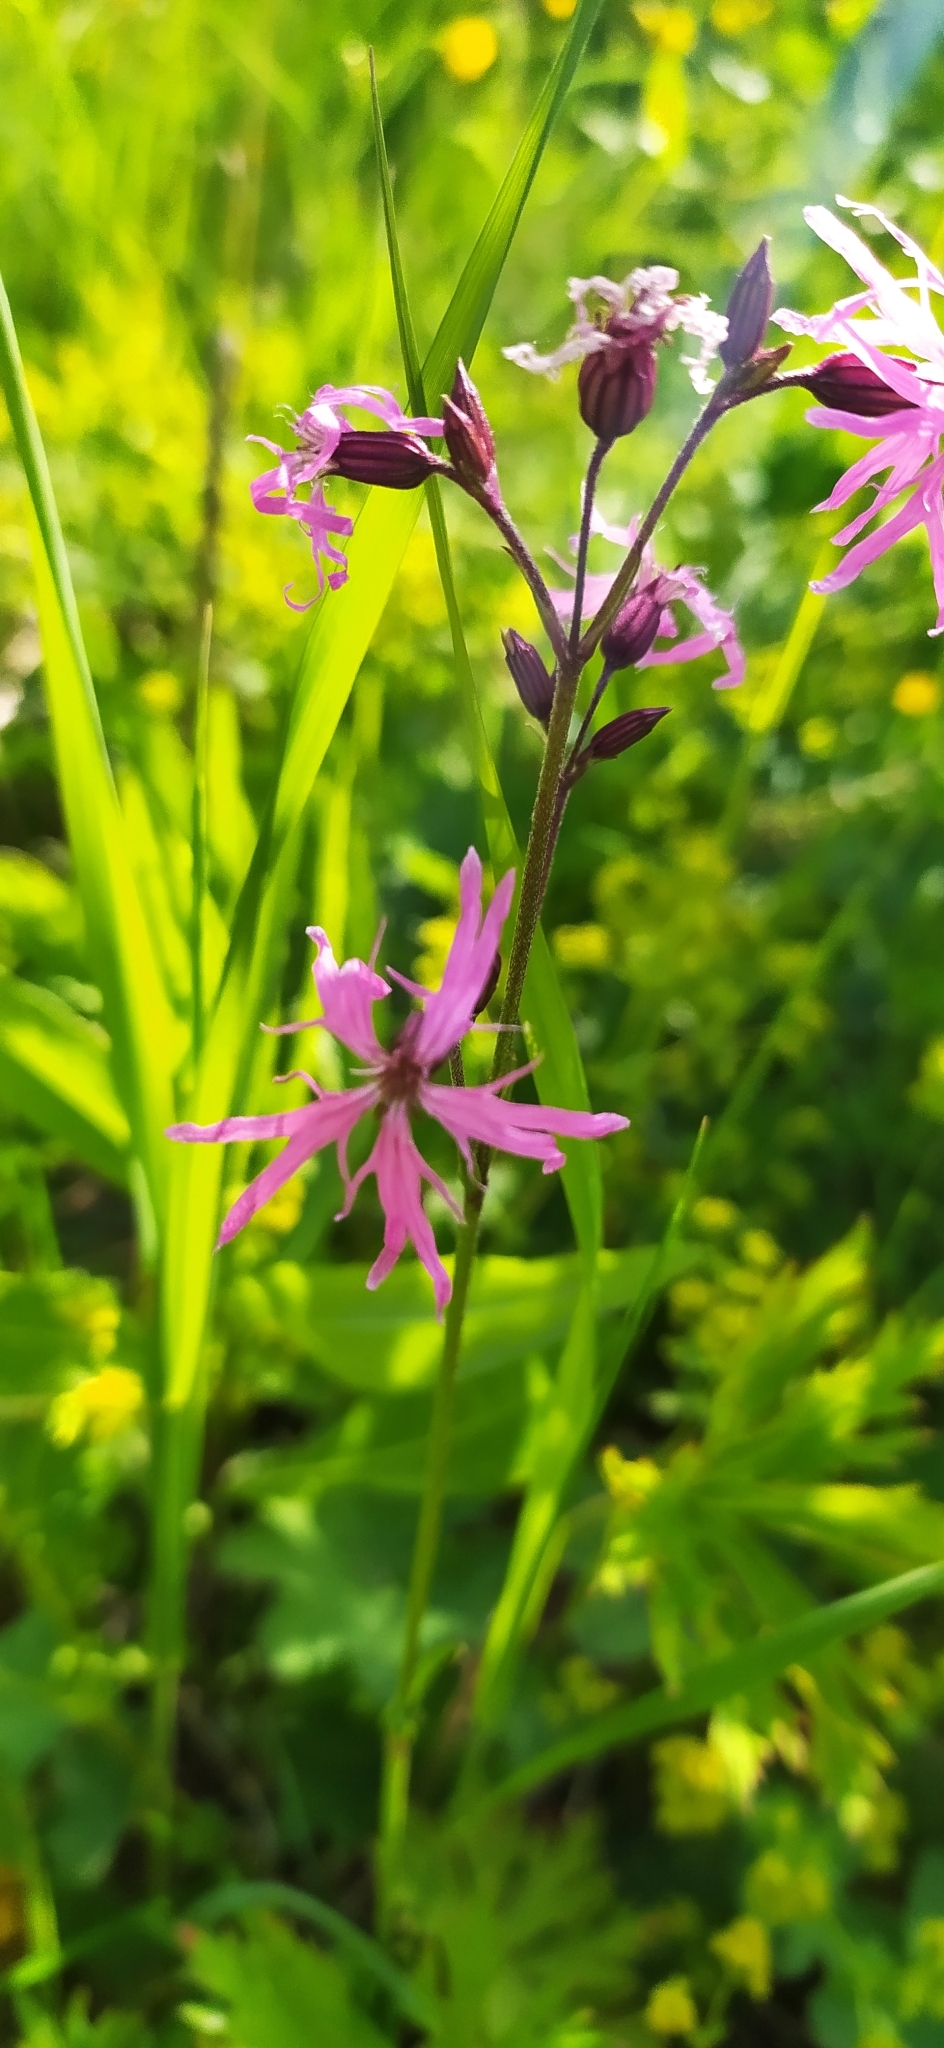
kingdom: Plantae
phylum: Tracheophyta
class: Magnoliopsida
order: Caryophyllales
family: Caryophyllaceae
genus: Silene
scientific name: Silene flos-cuculi
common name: Ragged-robin
